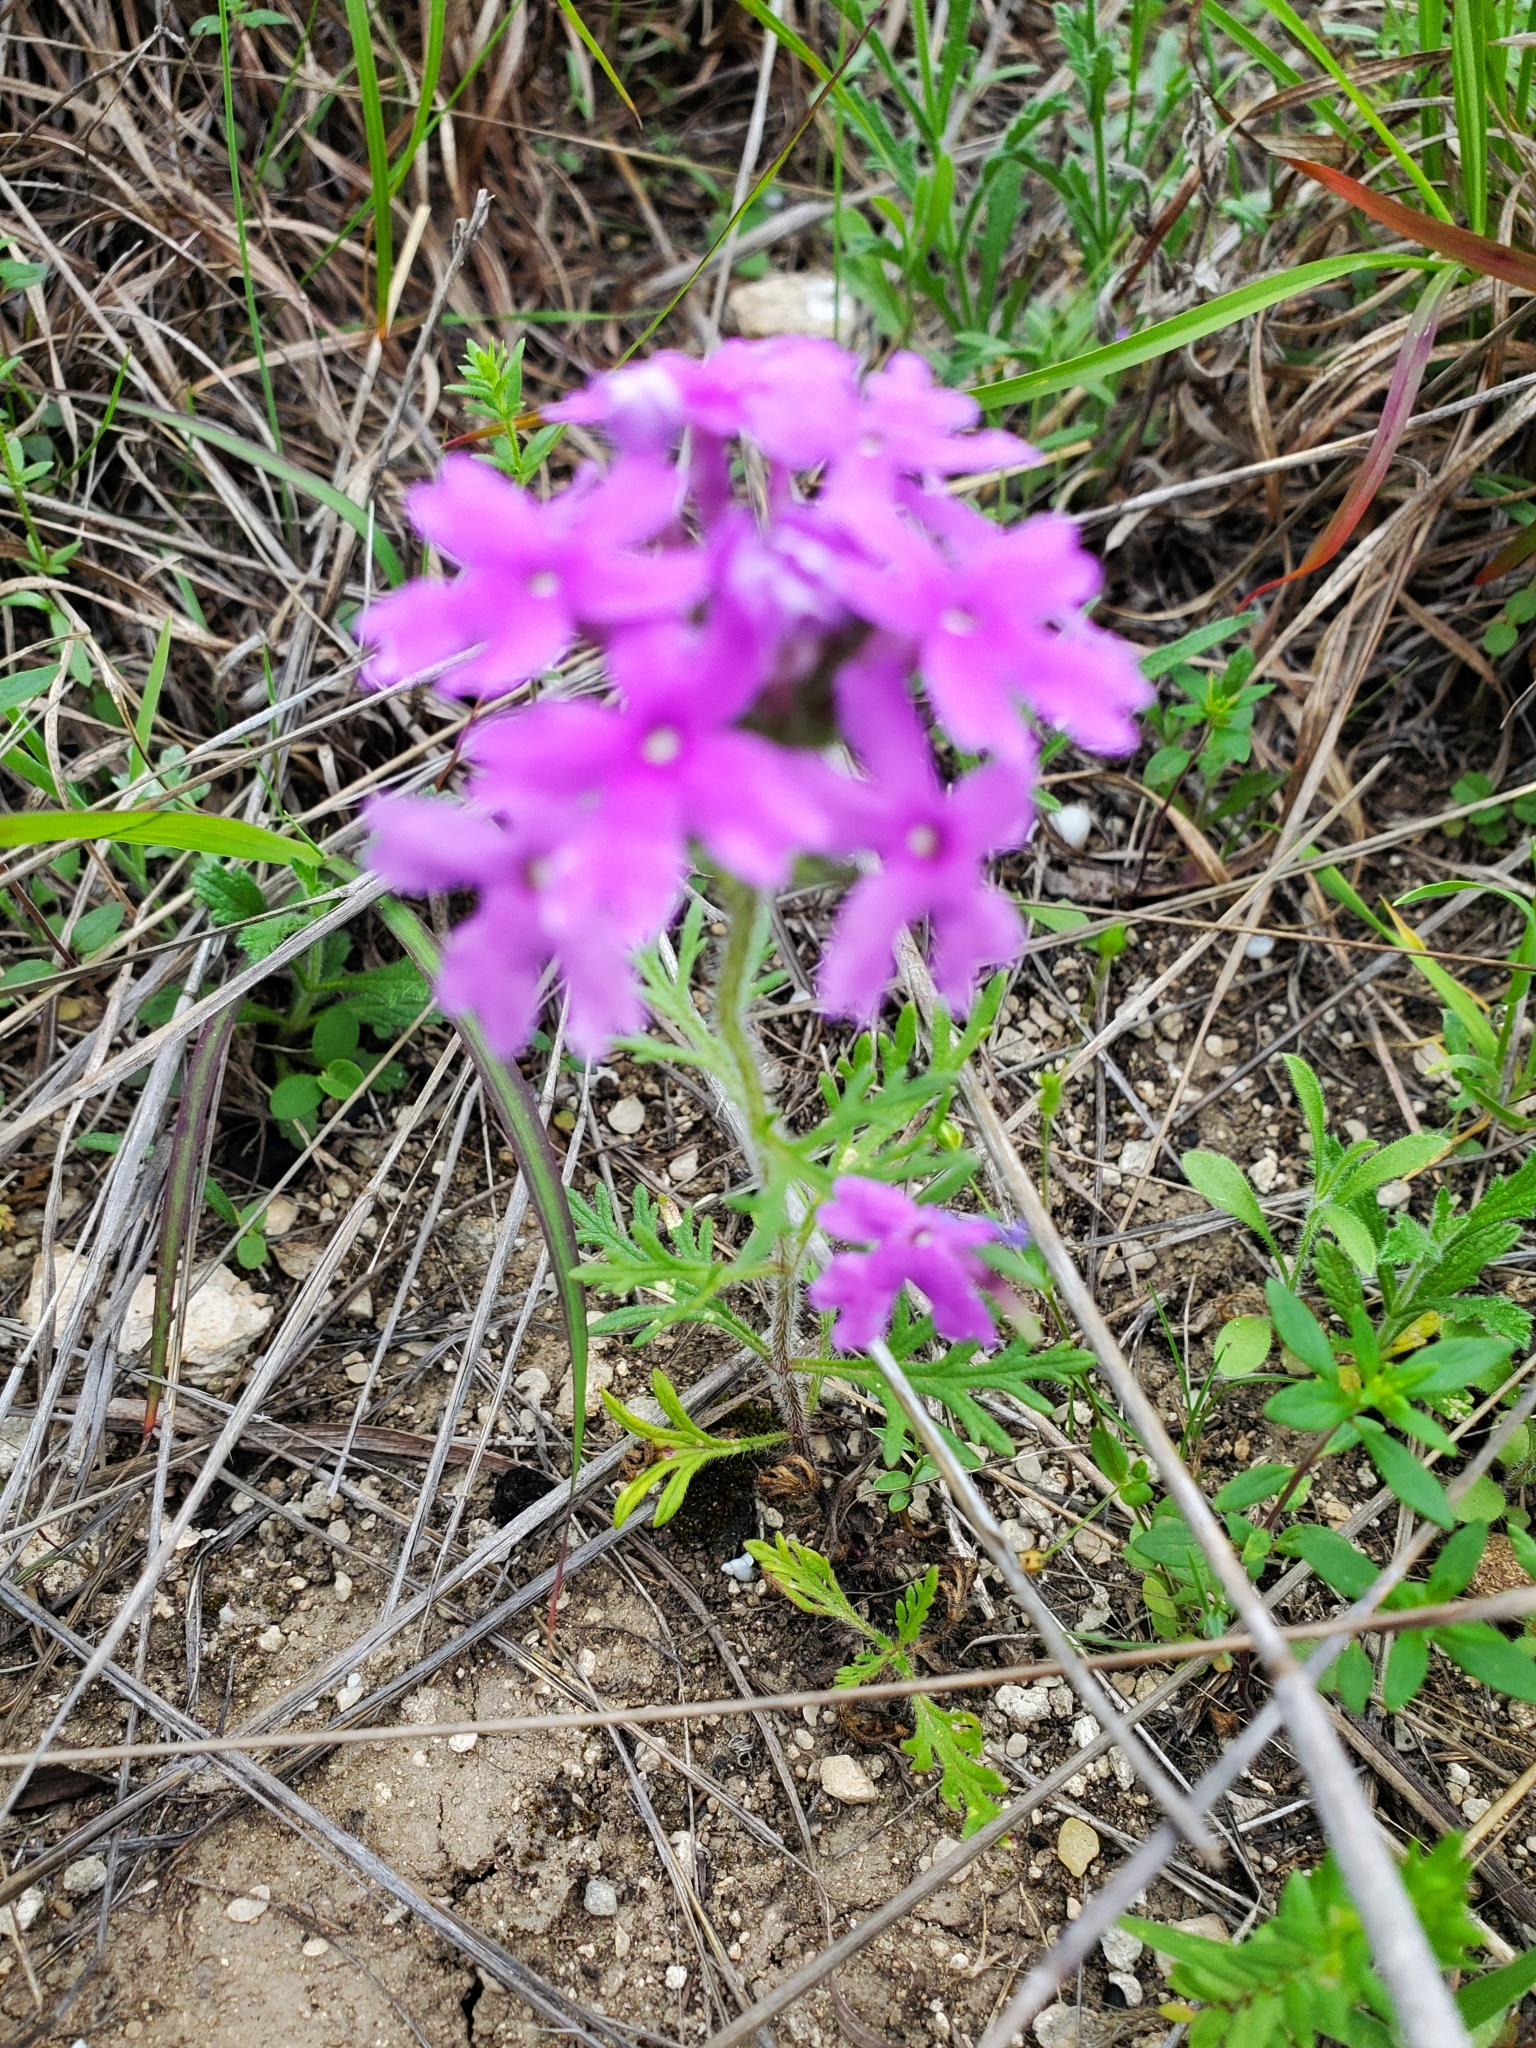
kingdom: Plantae
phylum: Tracheophyta
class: Magnoliopsida
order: Lamiales
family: Verbenaceae
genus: Verbena
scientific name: Verbena bipinnatifida
